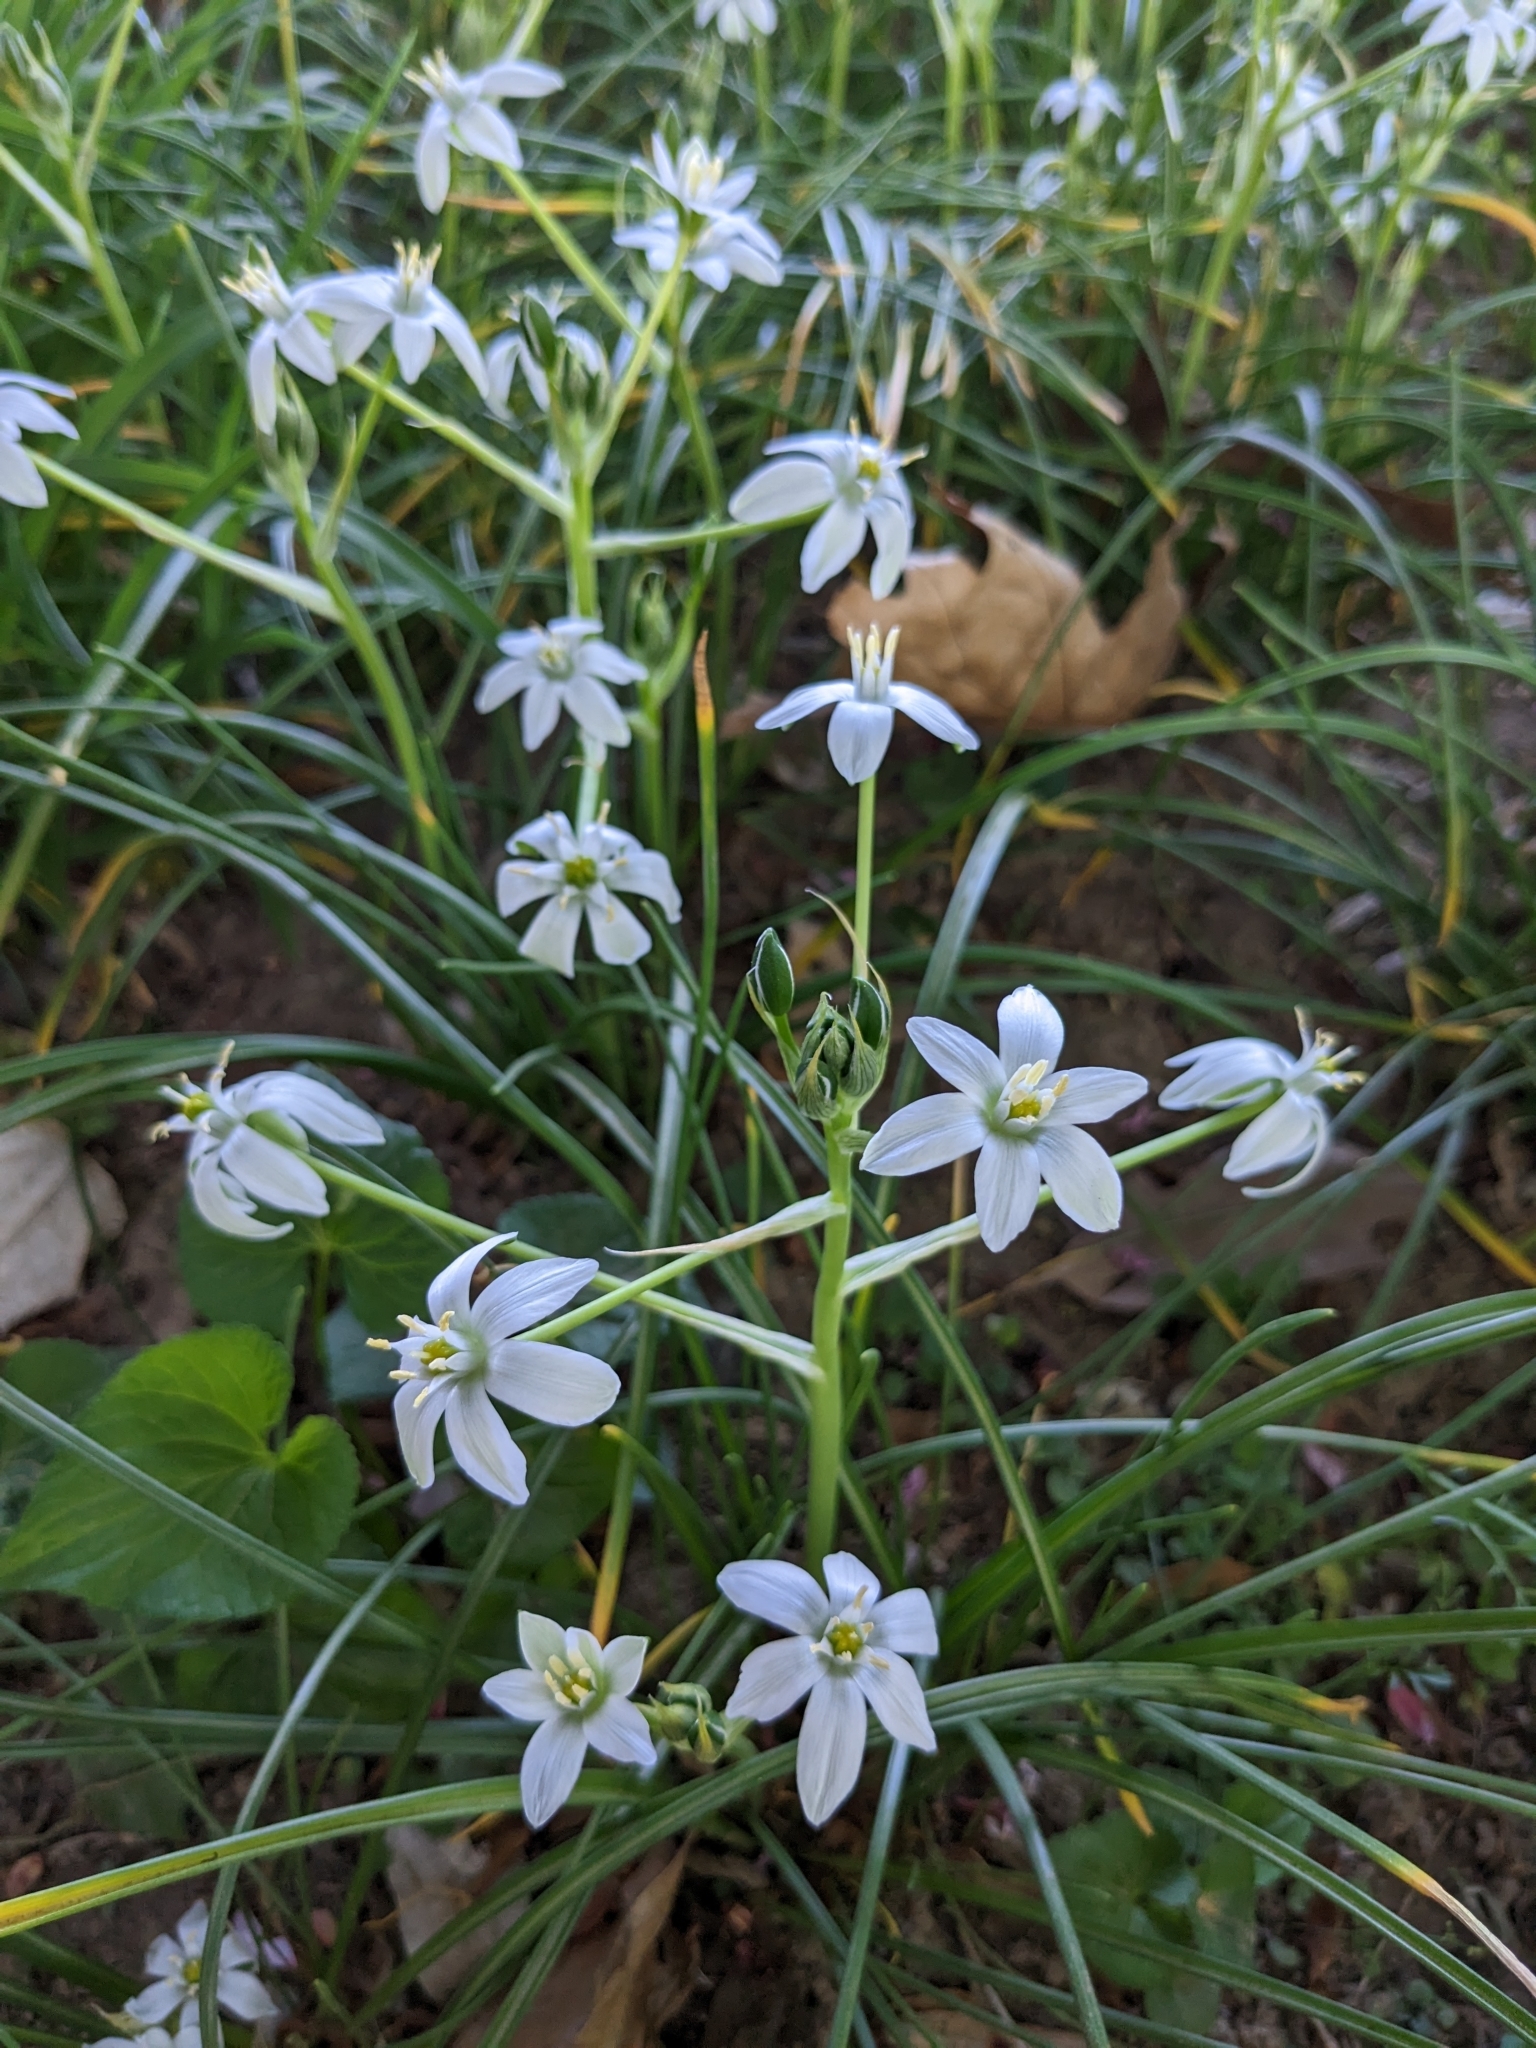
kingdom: Plantae
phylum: Tracheophyta
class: Liliopsida
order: Asparagales
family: Asparagaceae
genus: Ornithogalum
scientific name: Ornithogalum umbellatum
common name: Garden star-of-bethlehem
